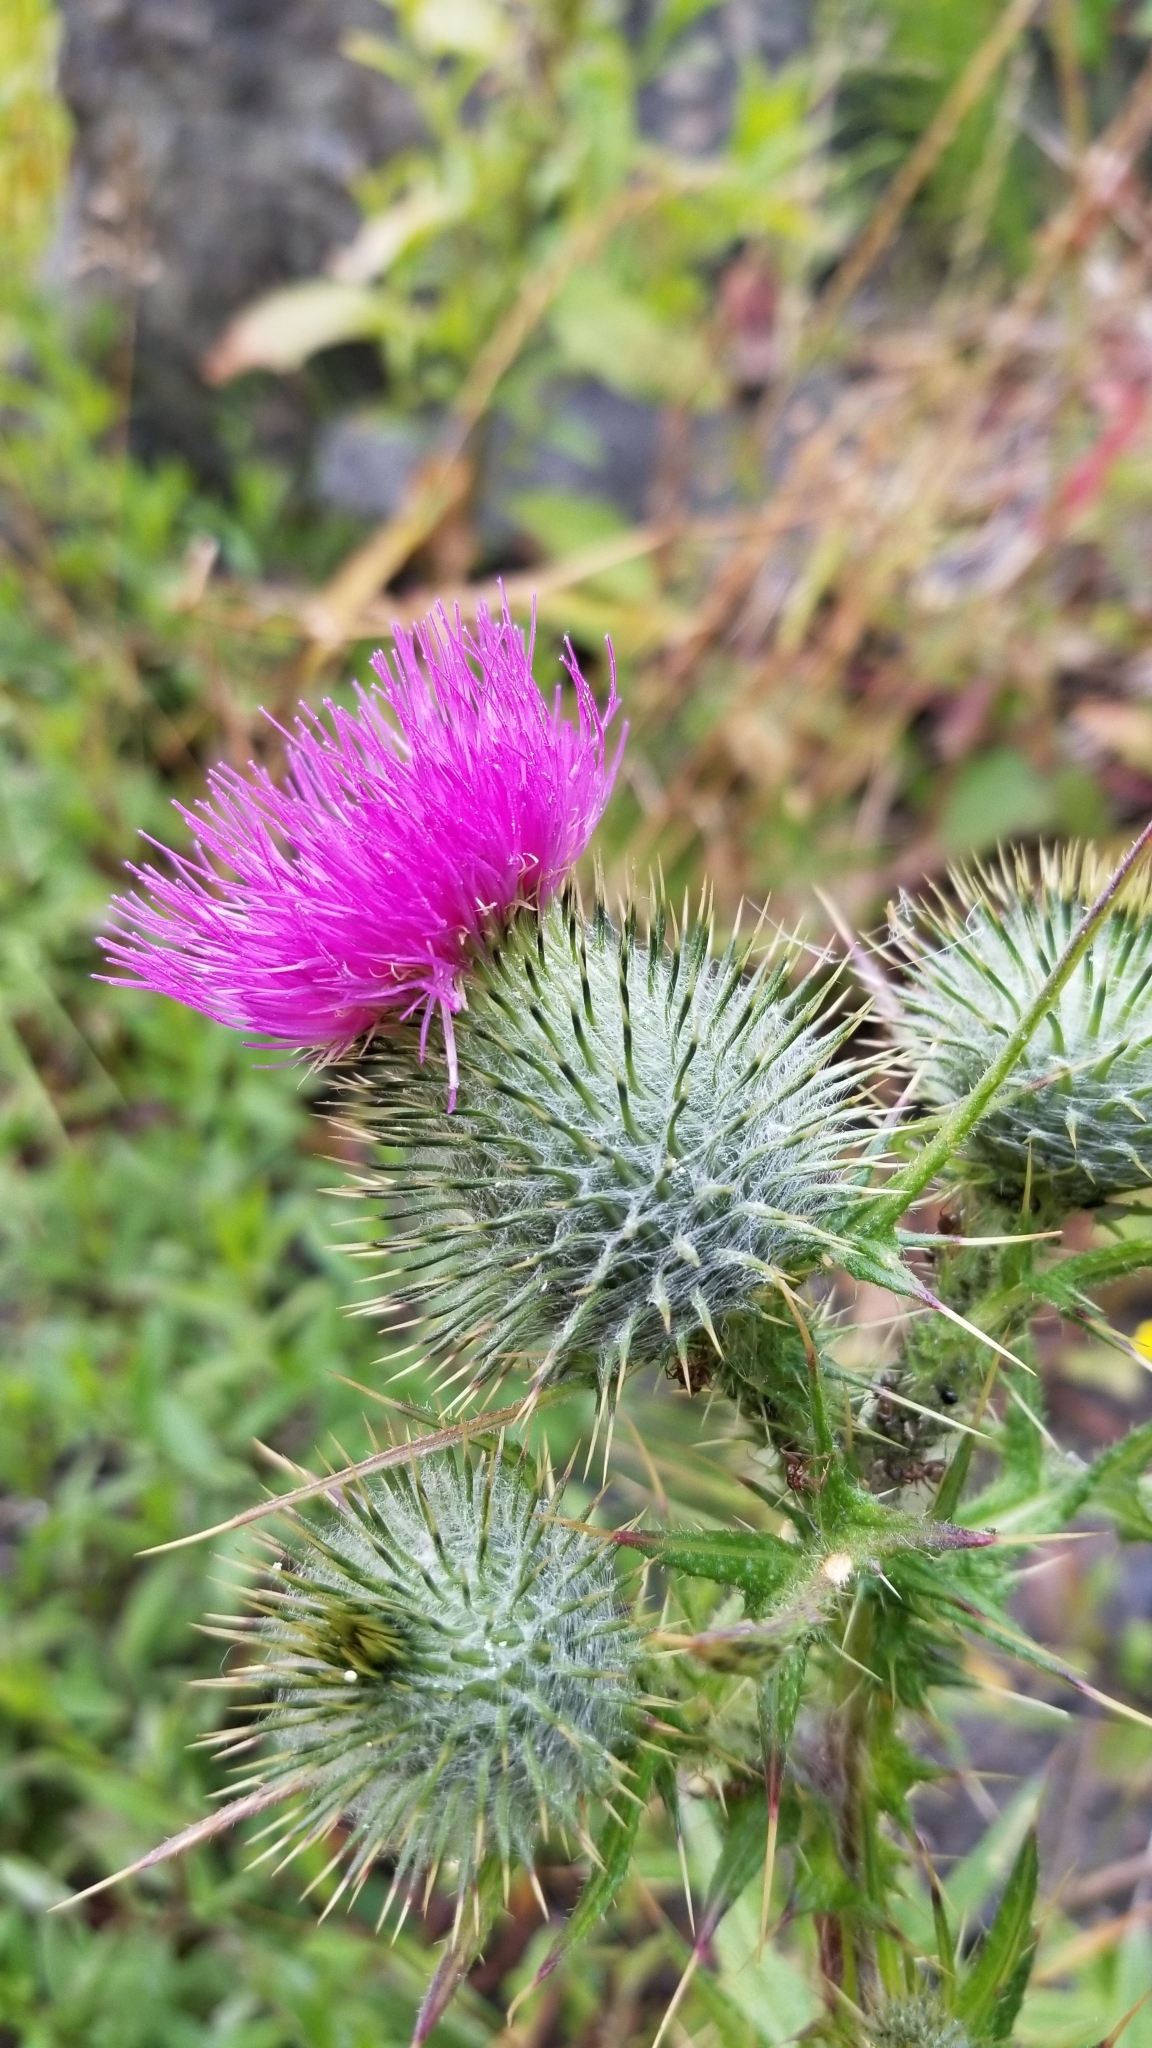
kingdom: Plantae
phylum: Tracheophyta
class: Magnoliopsida
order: Asterales
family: Asteraceae
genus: Cirsium
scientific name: Cirsium vulgare
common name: Bull thistle
